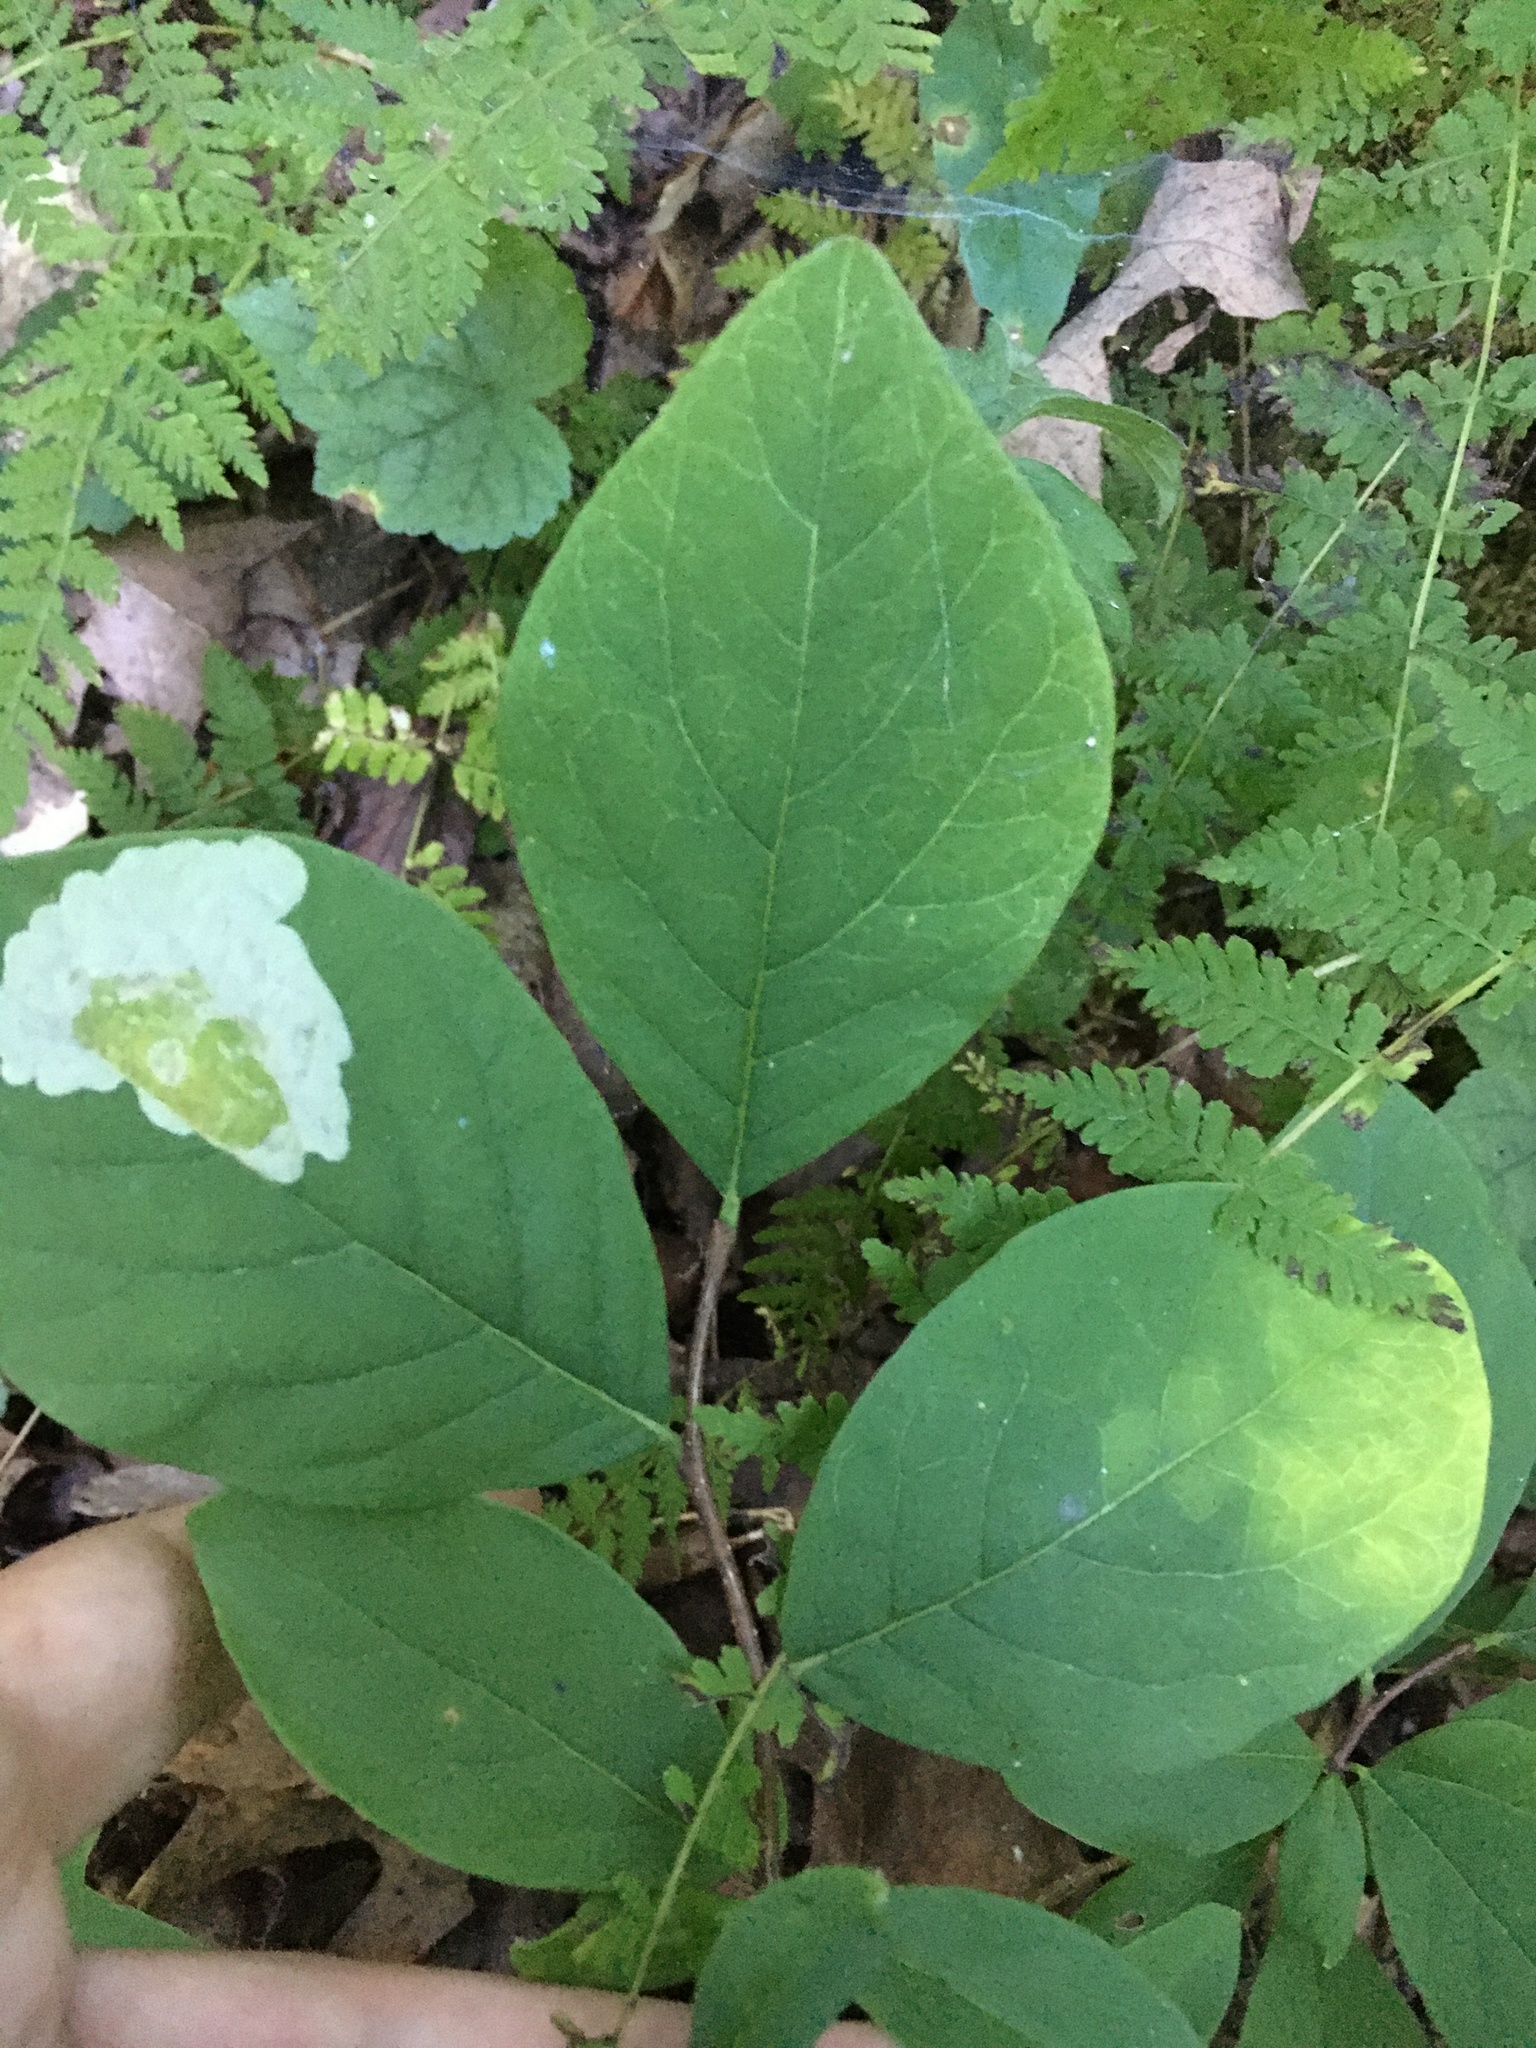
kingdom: Plantae
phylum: Tracheophyta
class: Magnoliopsida
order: Malvales
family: Thymelaeaceae
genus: Dirca
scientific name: Dirca palustris
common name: Leatherwood
